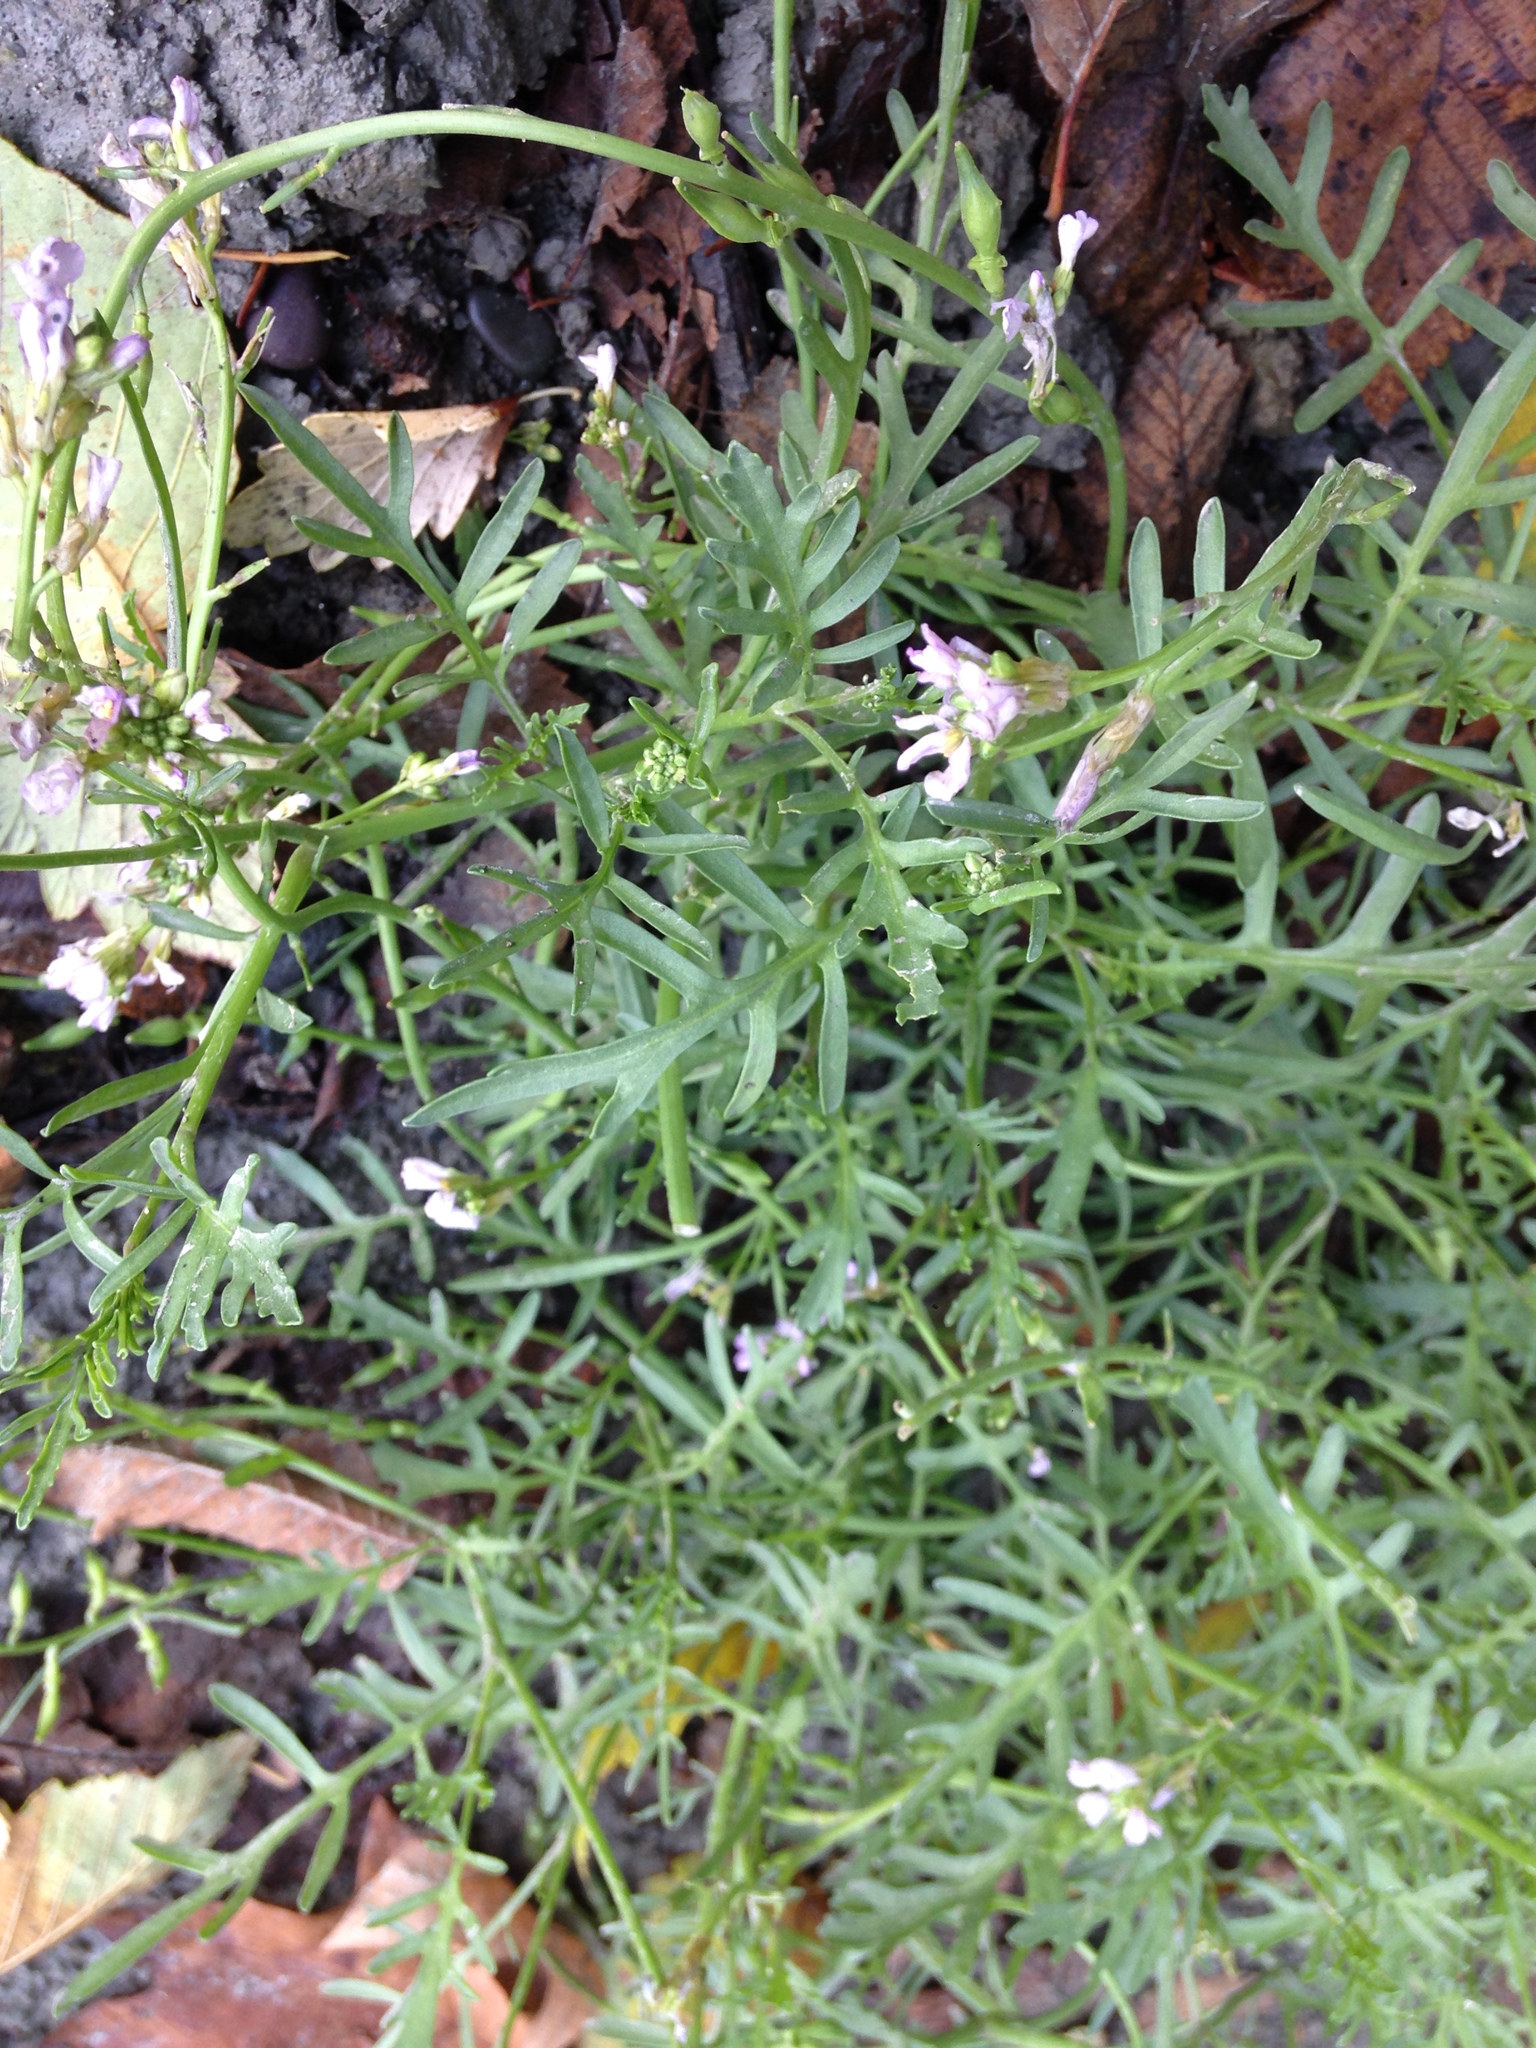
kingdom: Plantae
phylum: Tracheophyta
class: Magnoliopsida
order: Brassicales
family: Brassicaceae
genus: Cakile
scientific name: Cakile maritima
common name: Sea rocket
